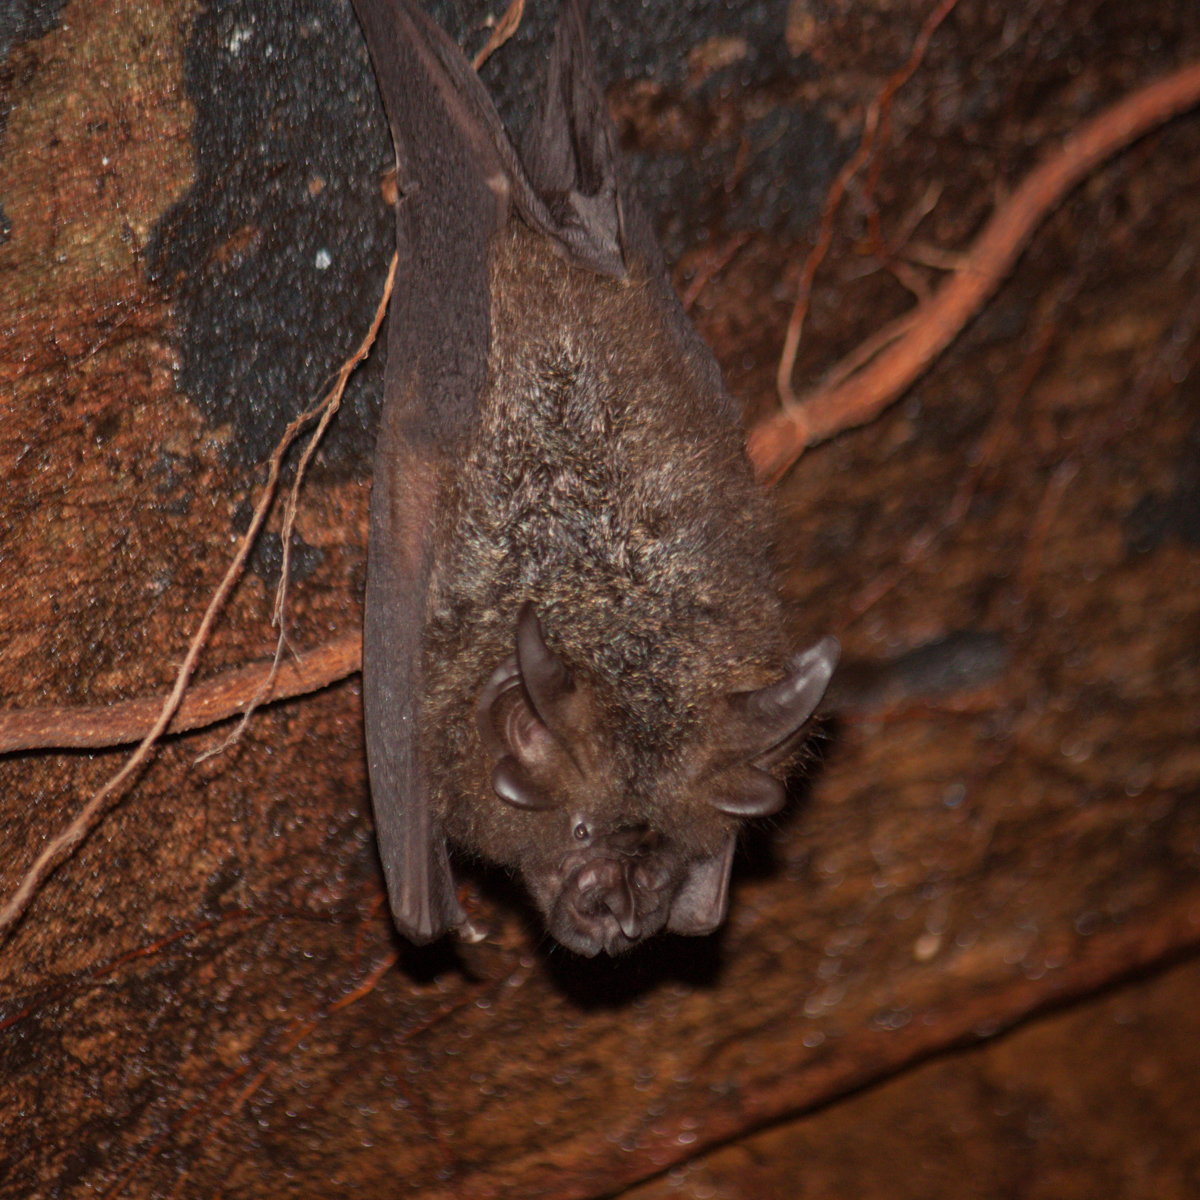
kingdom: Animalia
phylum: Chordata
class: Mammalia
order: Chiroptera
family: Rhinolophidae
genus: Rhinolophus
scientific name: Rhinolophus luctus
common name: Woolly horseshoe bat
